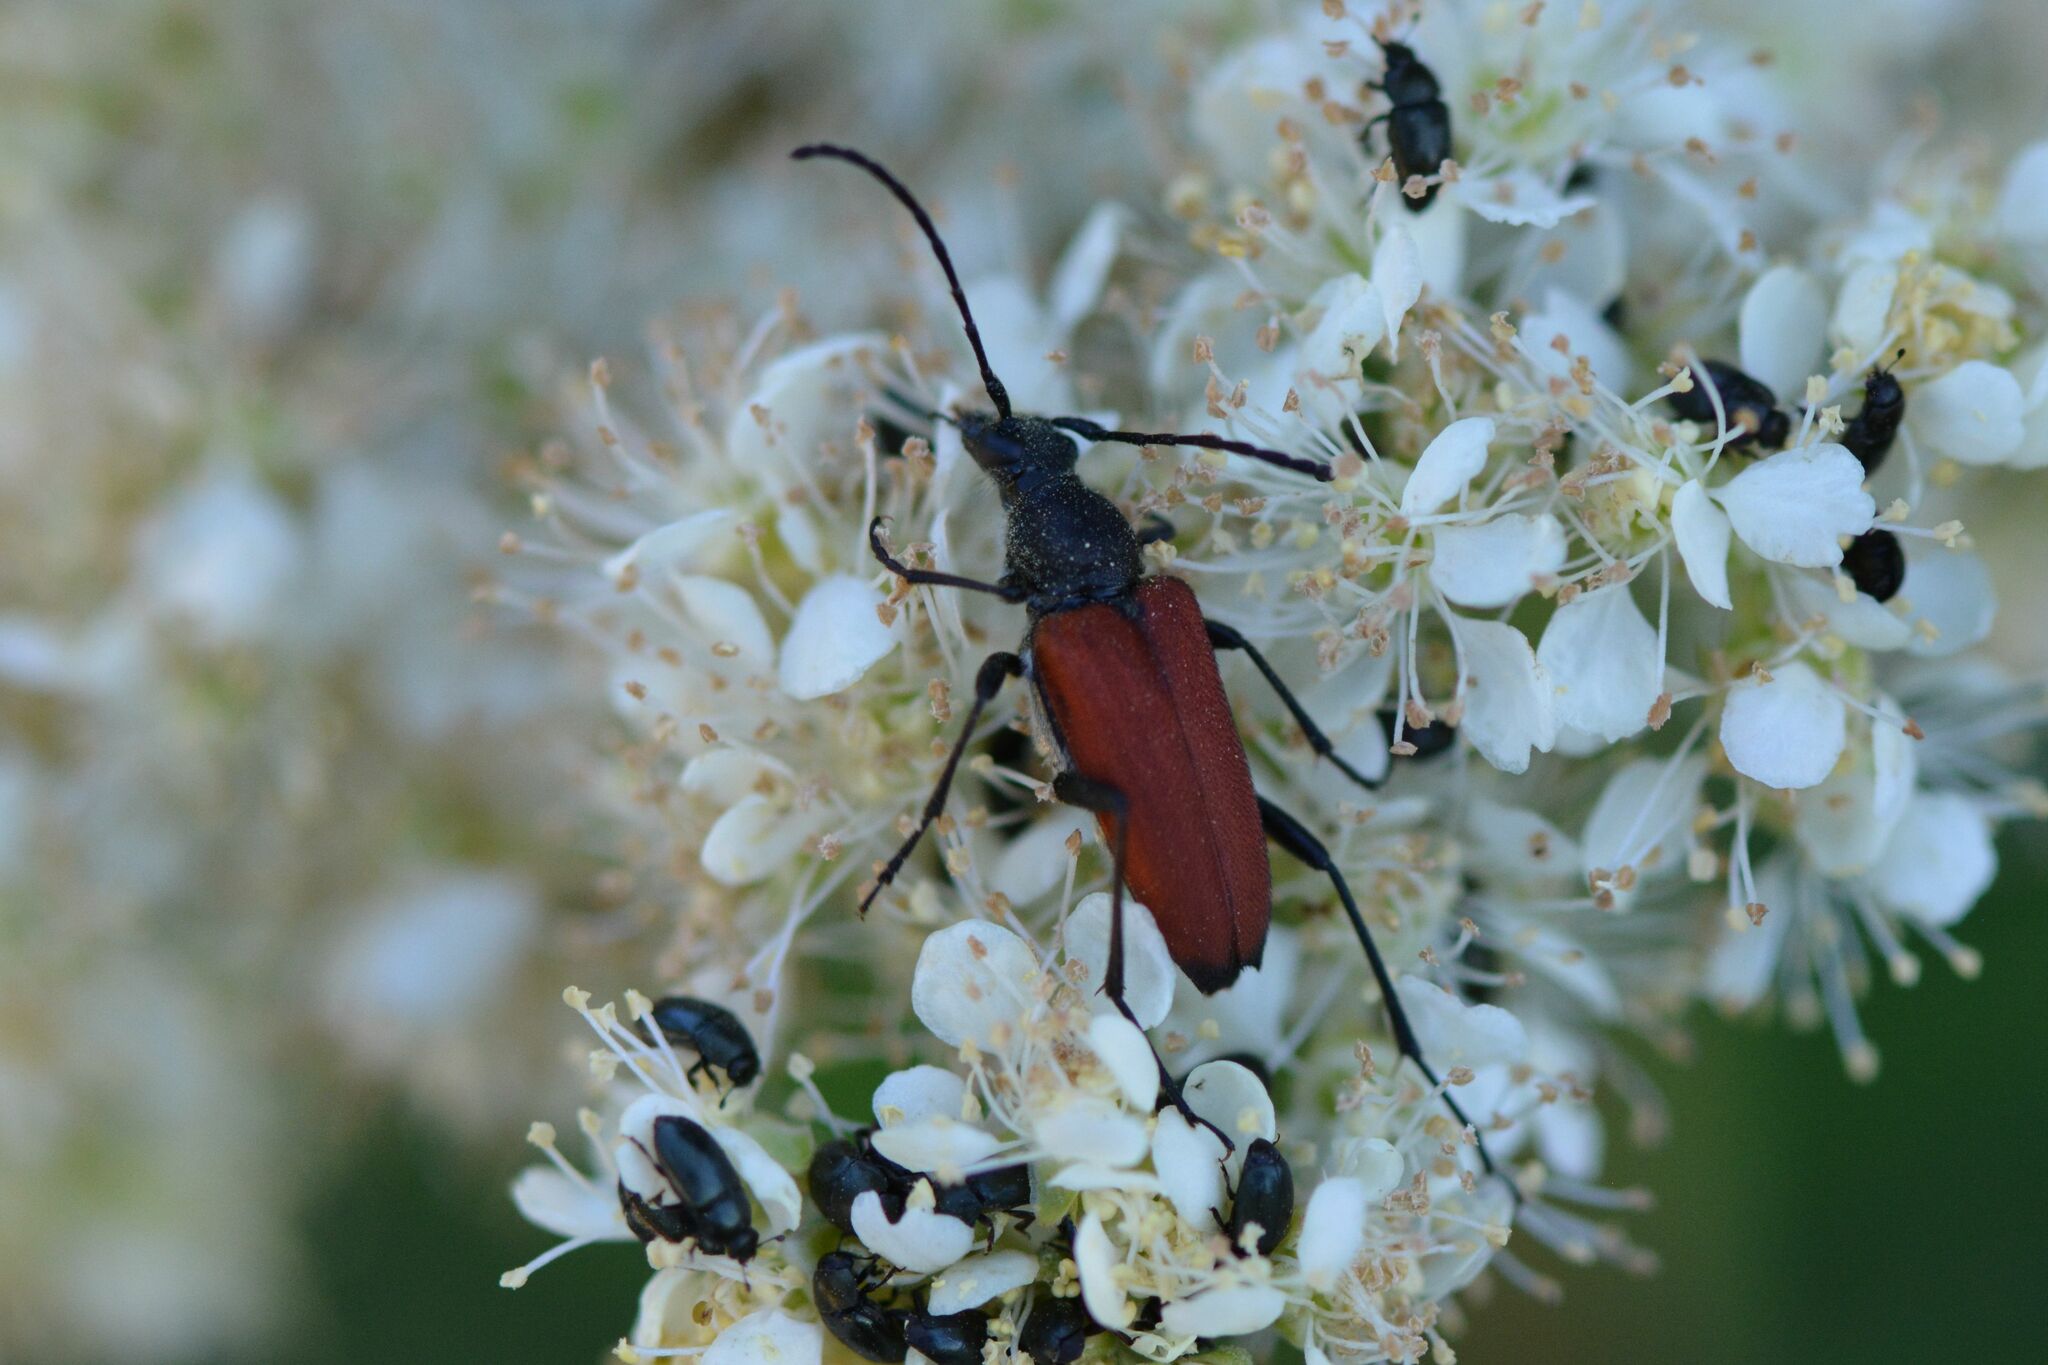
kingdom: Animalia
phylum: Arthropoda
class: Insecta
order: Coleoptera
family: Cerambycidae
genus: Anastrangalia
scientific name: Anastrangalia sanguinolenta
